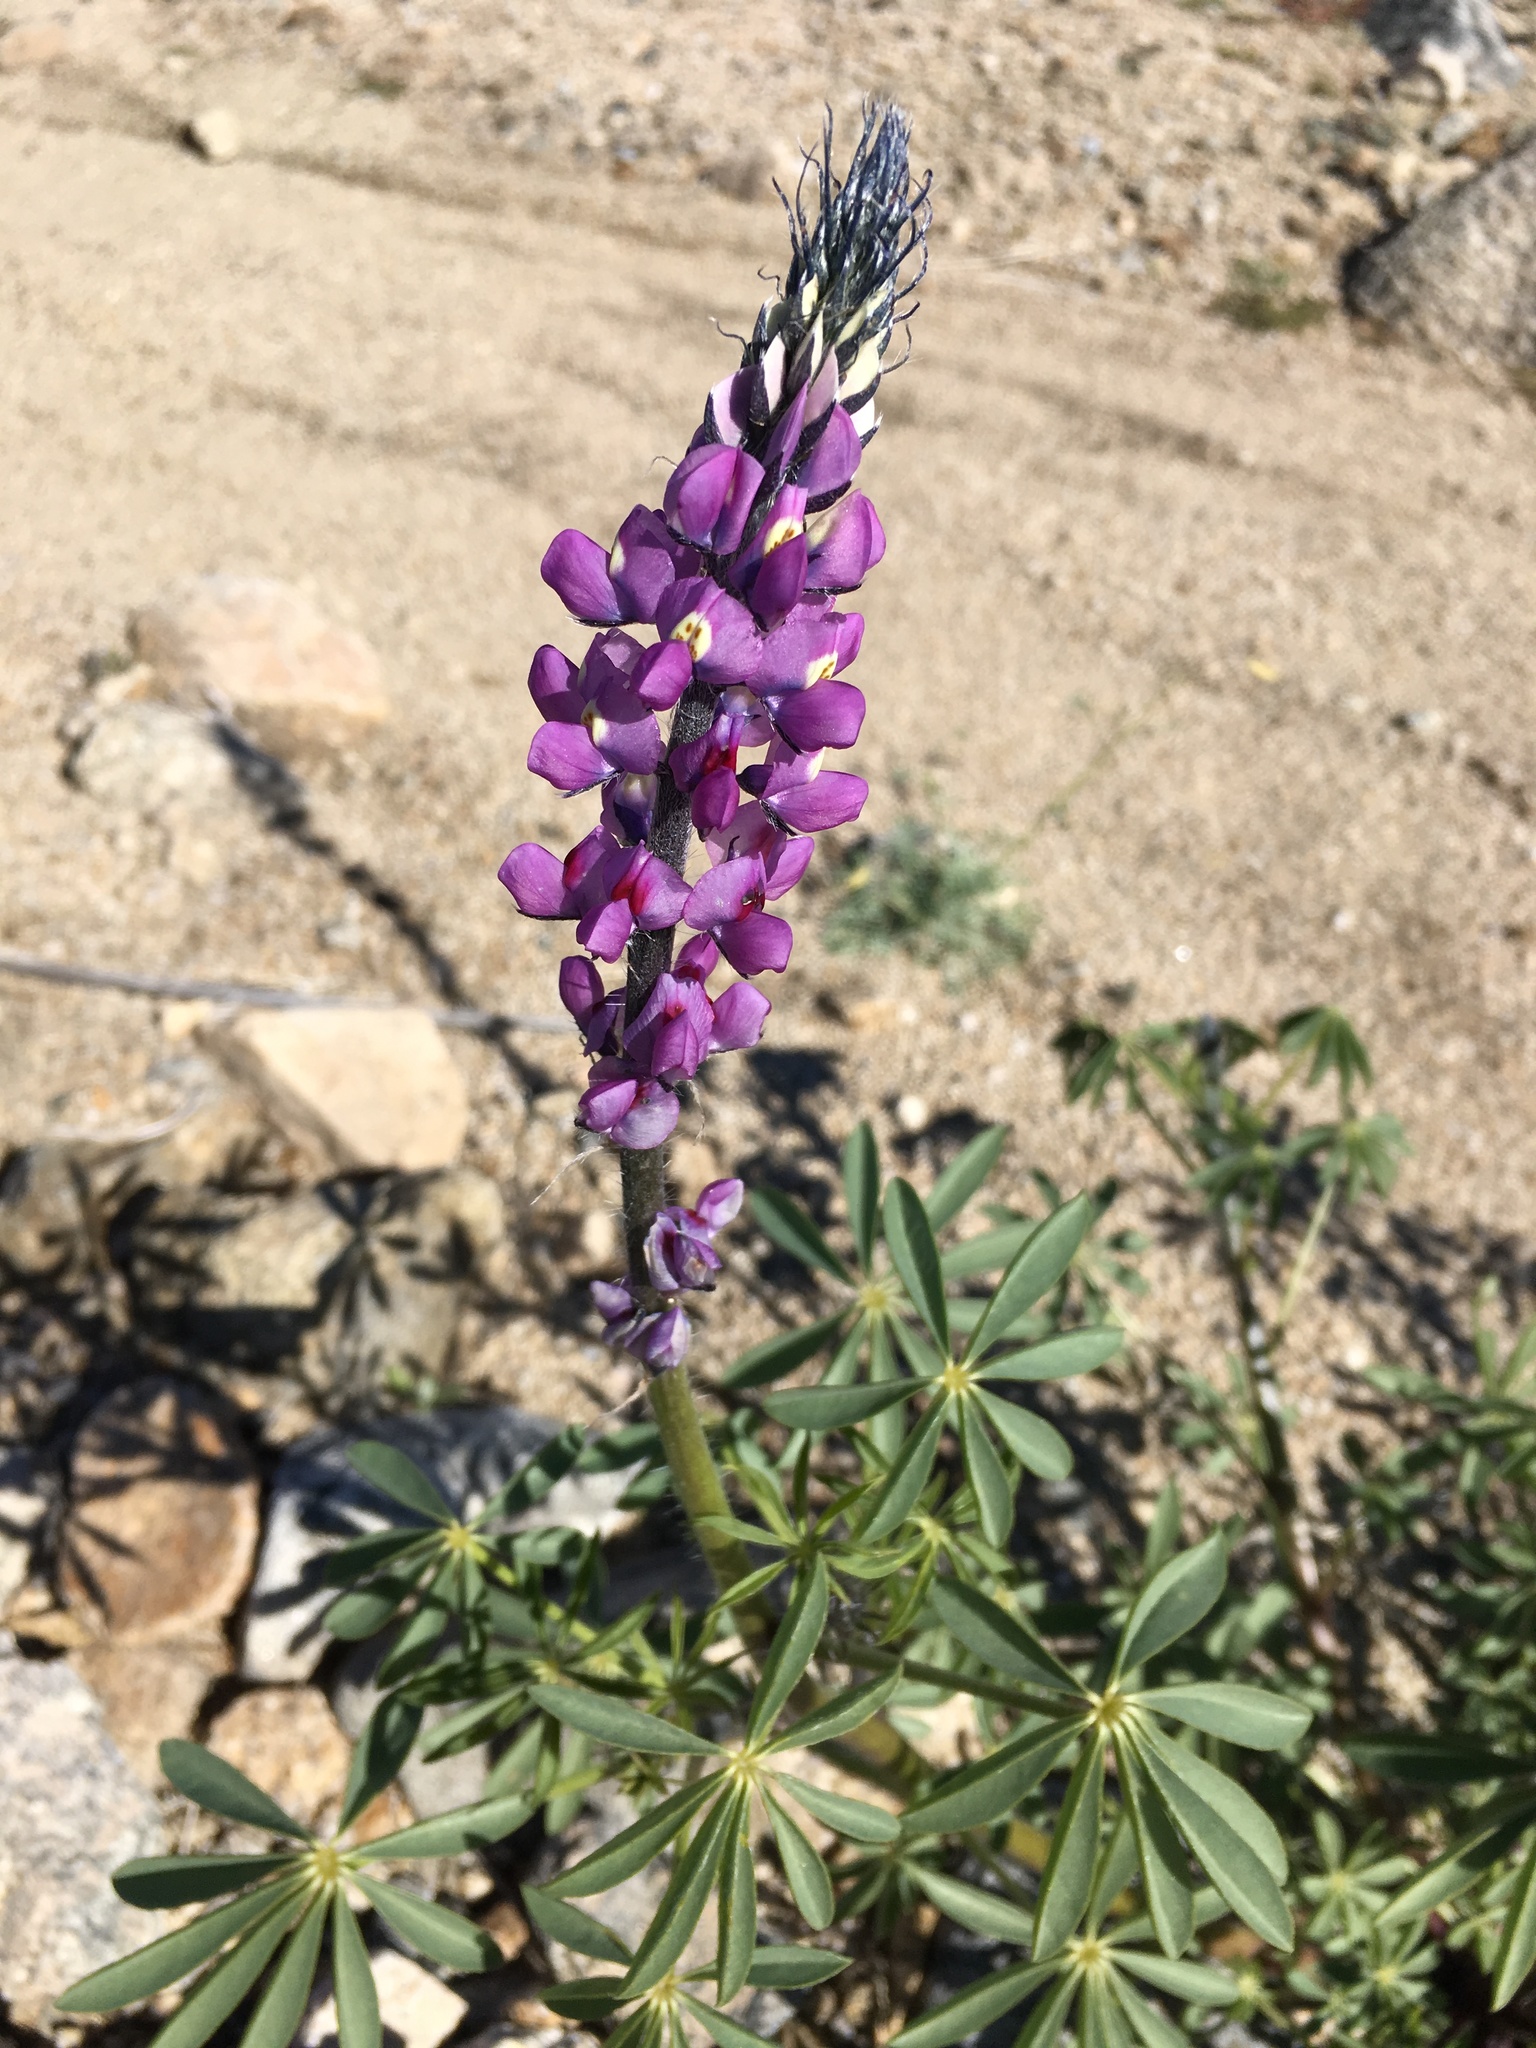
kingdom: Plantae
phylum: Tracheophyta
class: Magnoliopsida
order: Fabales
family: Fabaceae
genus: Lupinus
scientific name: Lupinus arizonicus
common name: Arizona lupine
